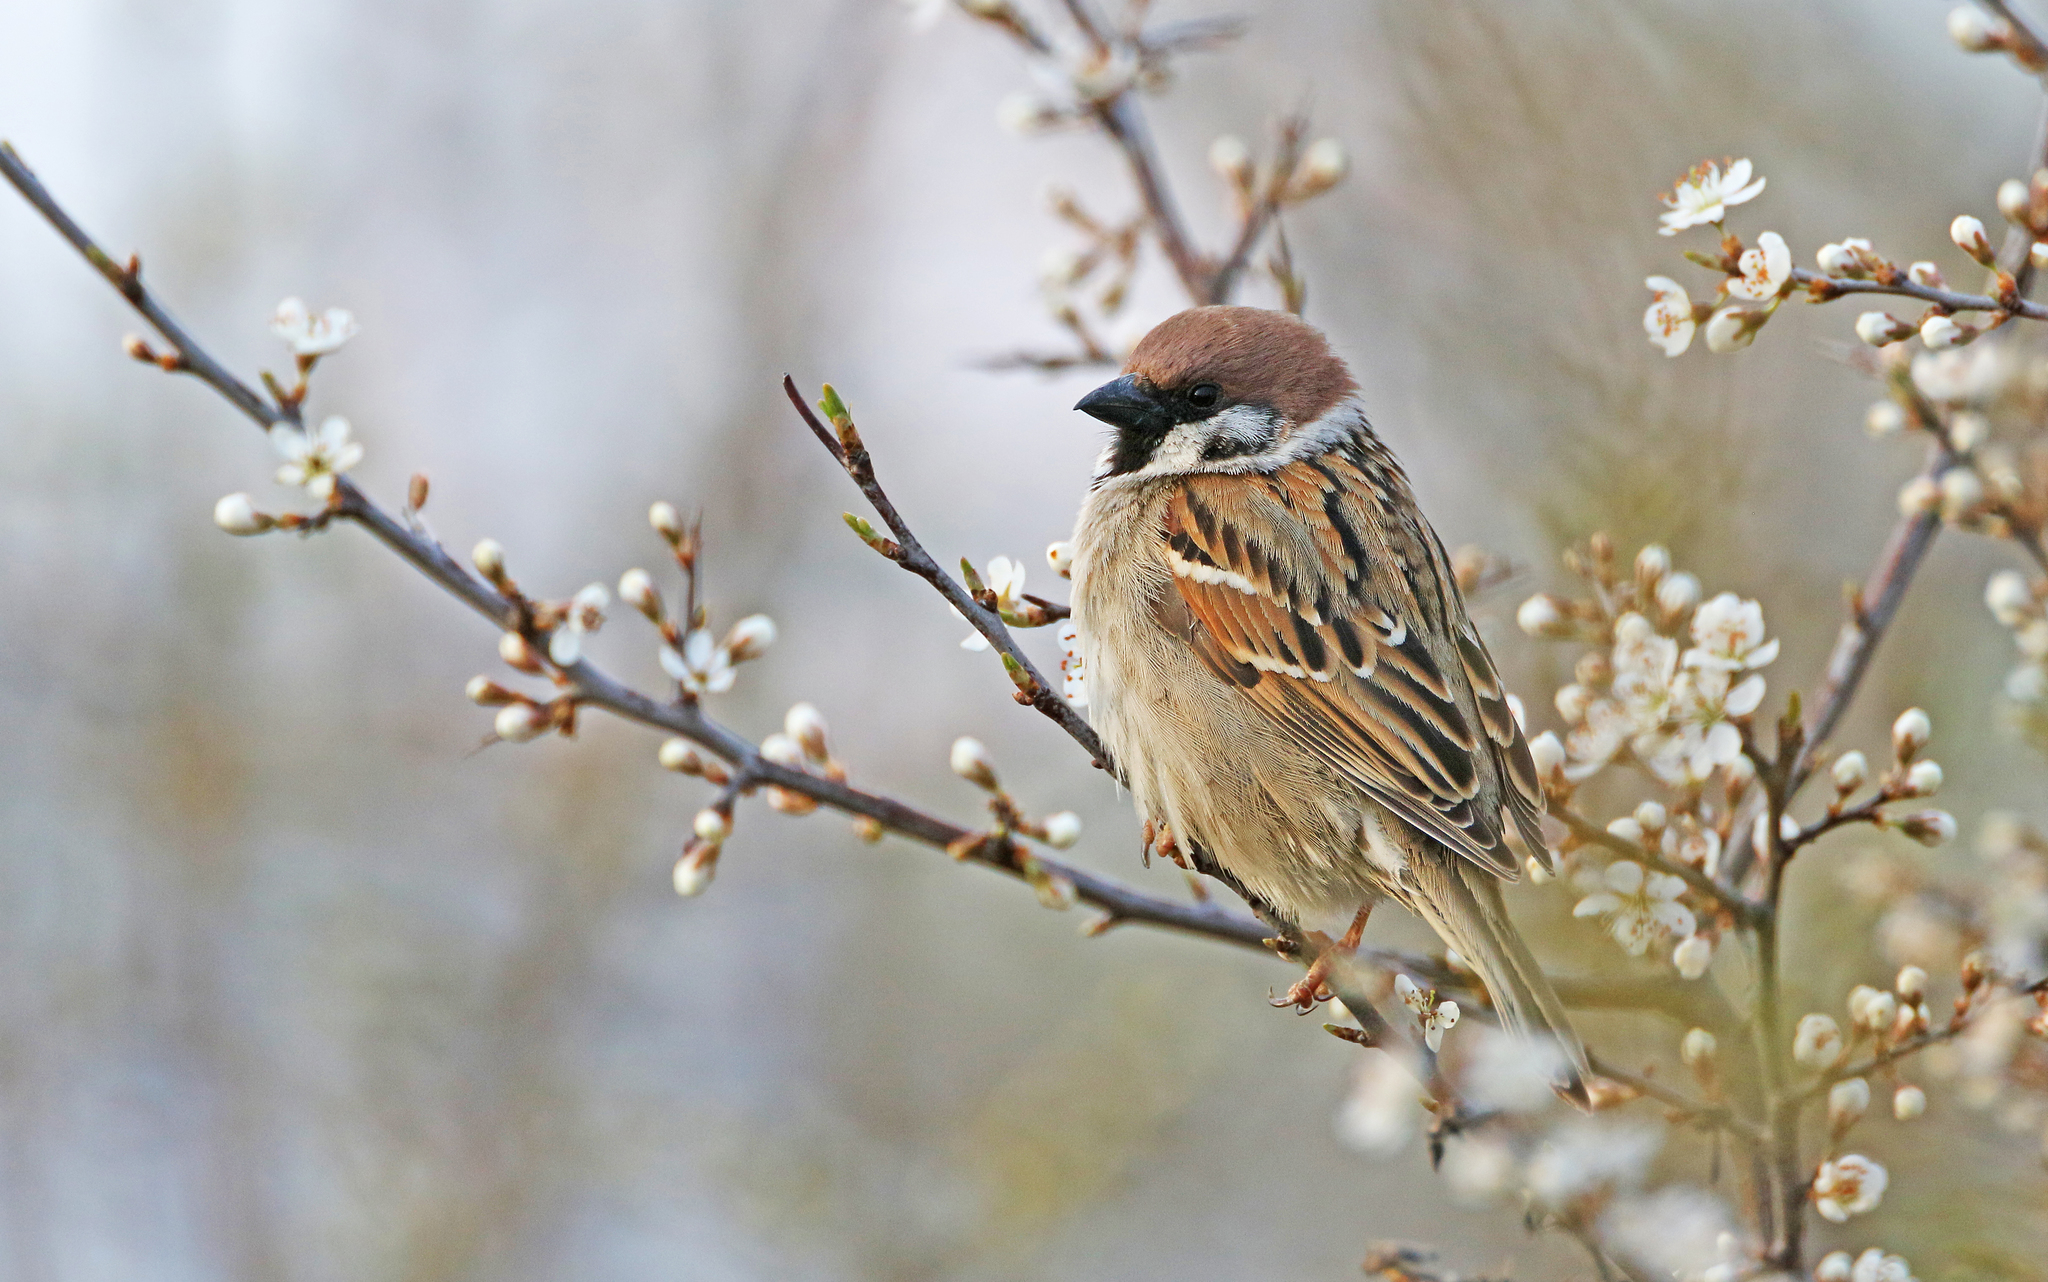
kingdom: Animalia
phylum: Chordata
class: Aves
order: Passeriformes
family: Passeridae
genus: Passer
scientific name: Passer montanus
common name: Eurasian tree sparrow
